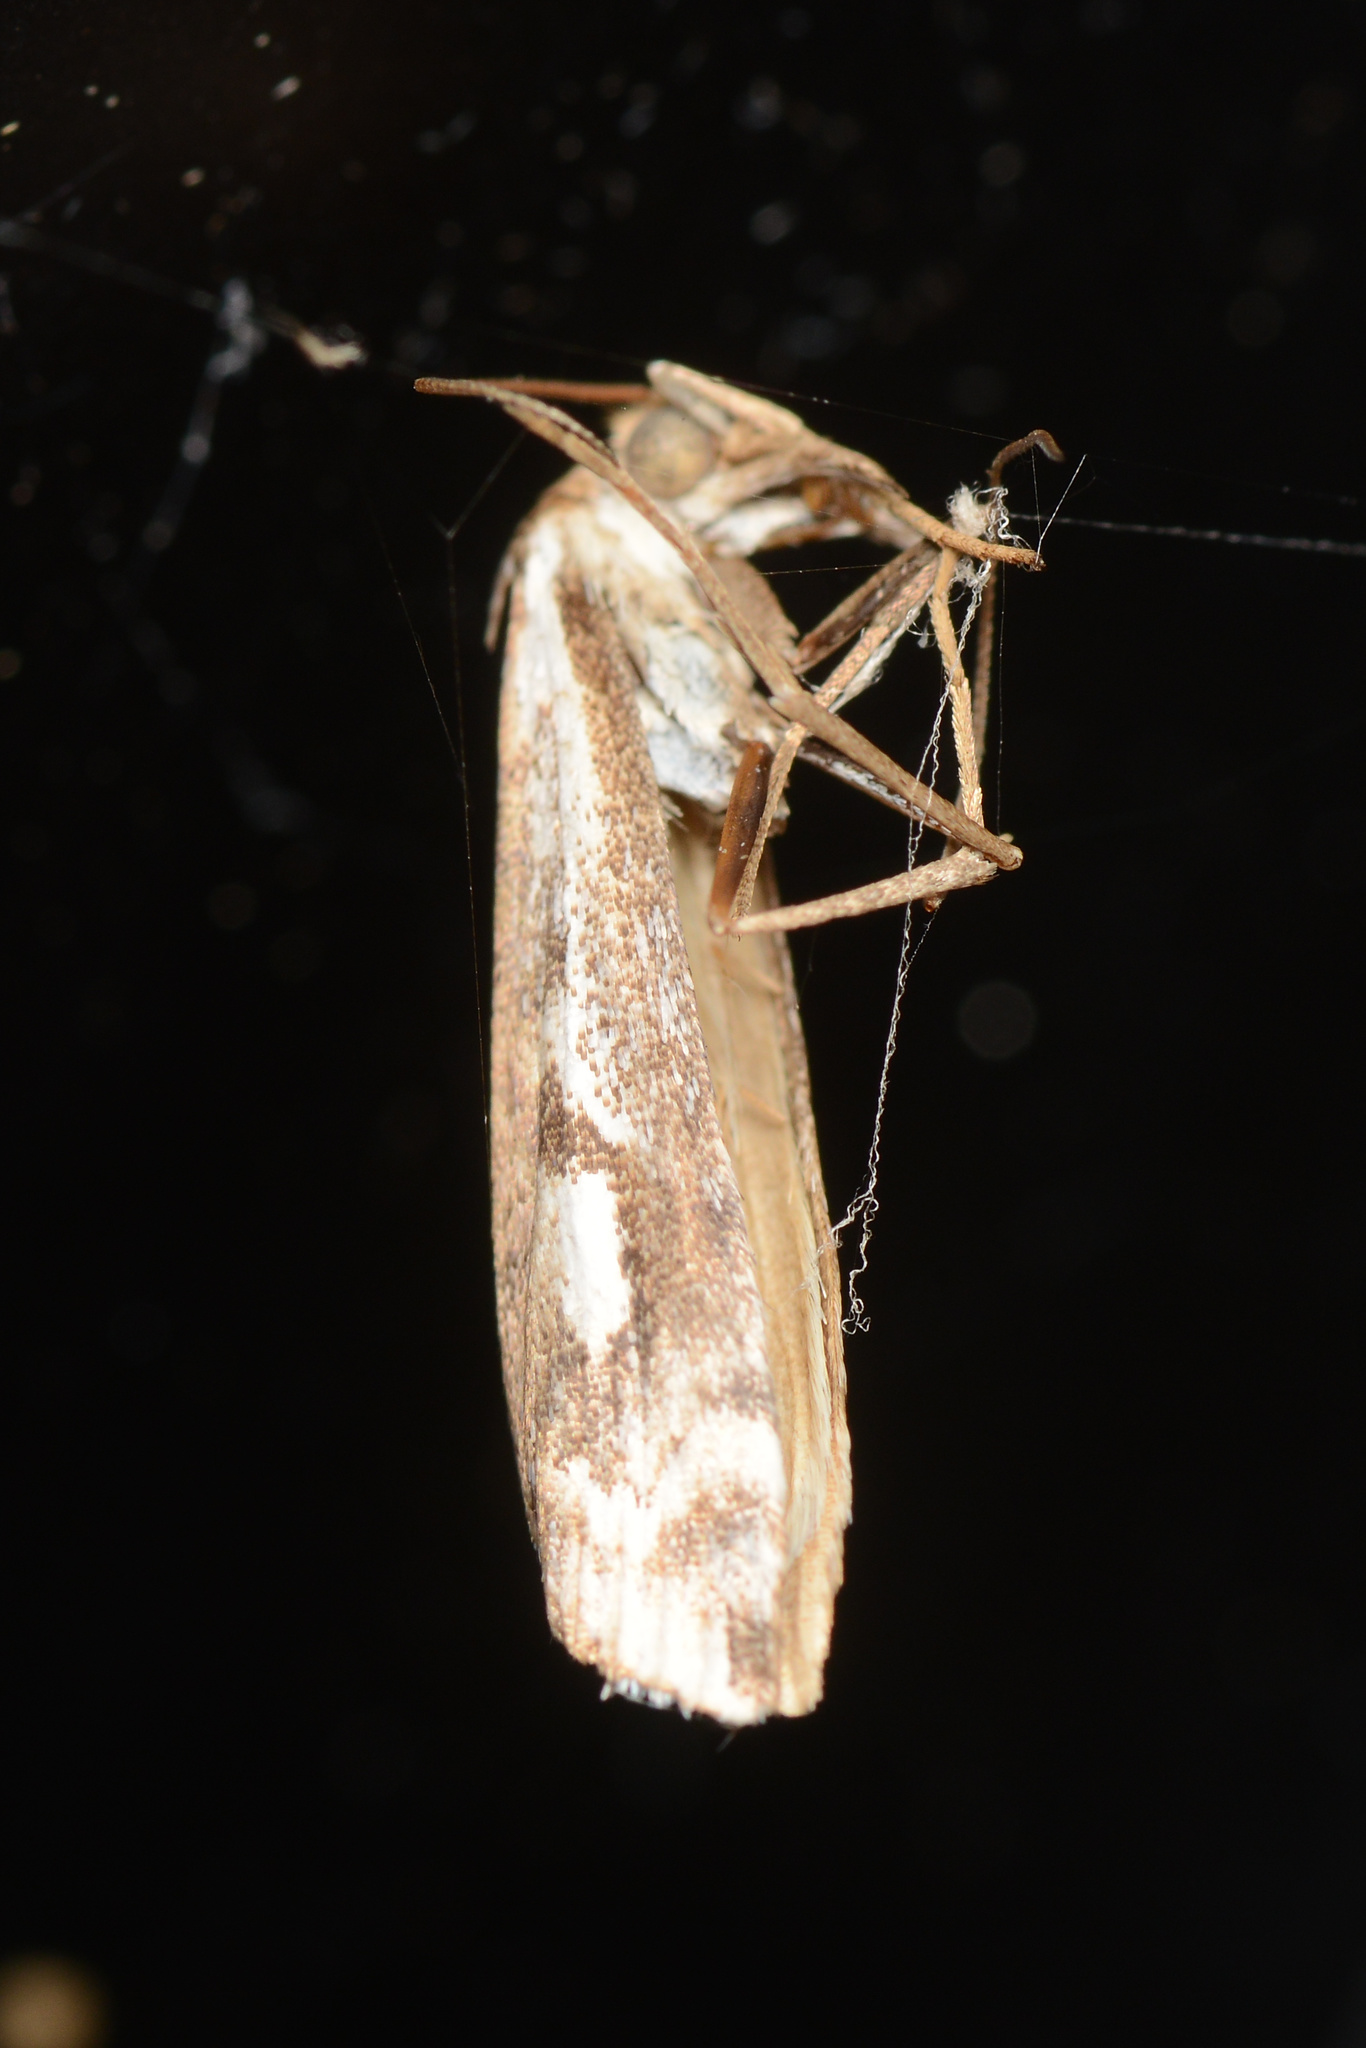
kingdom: Animalia
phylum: Arthropoda
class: Insecta
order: Lepidoptera
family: Crambidae
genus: Orocrambus
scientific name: Orocrambus vulgaris
